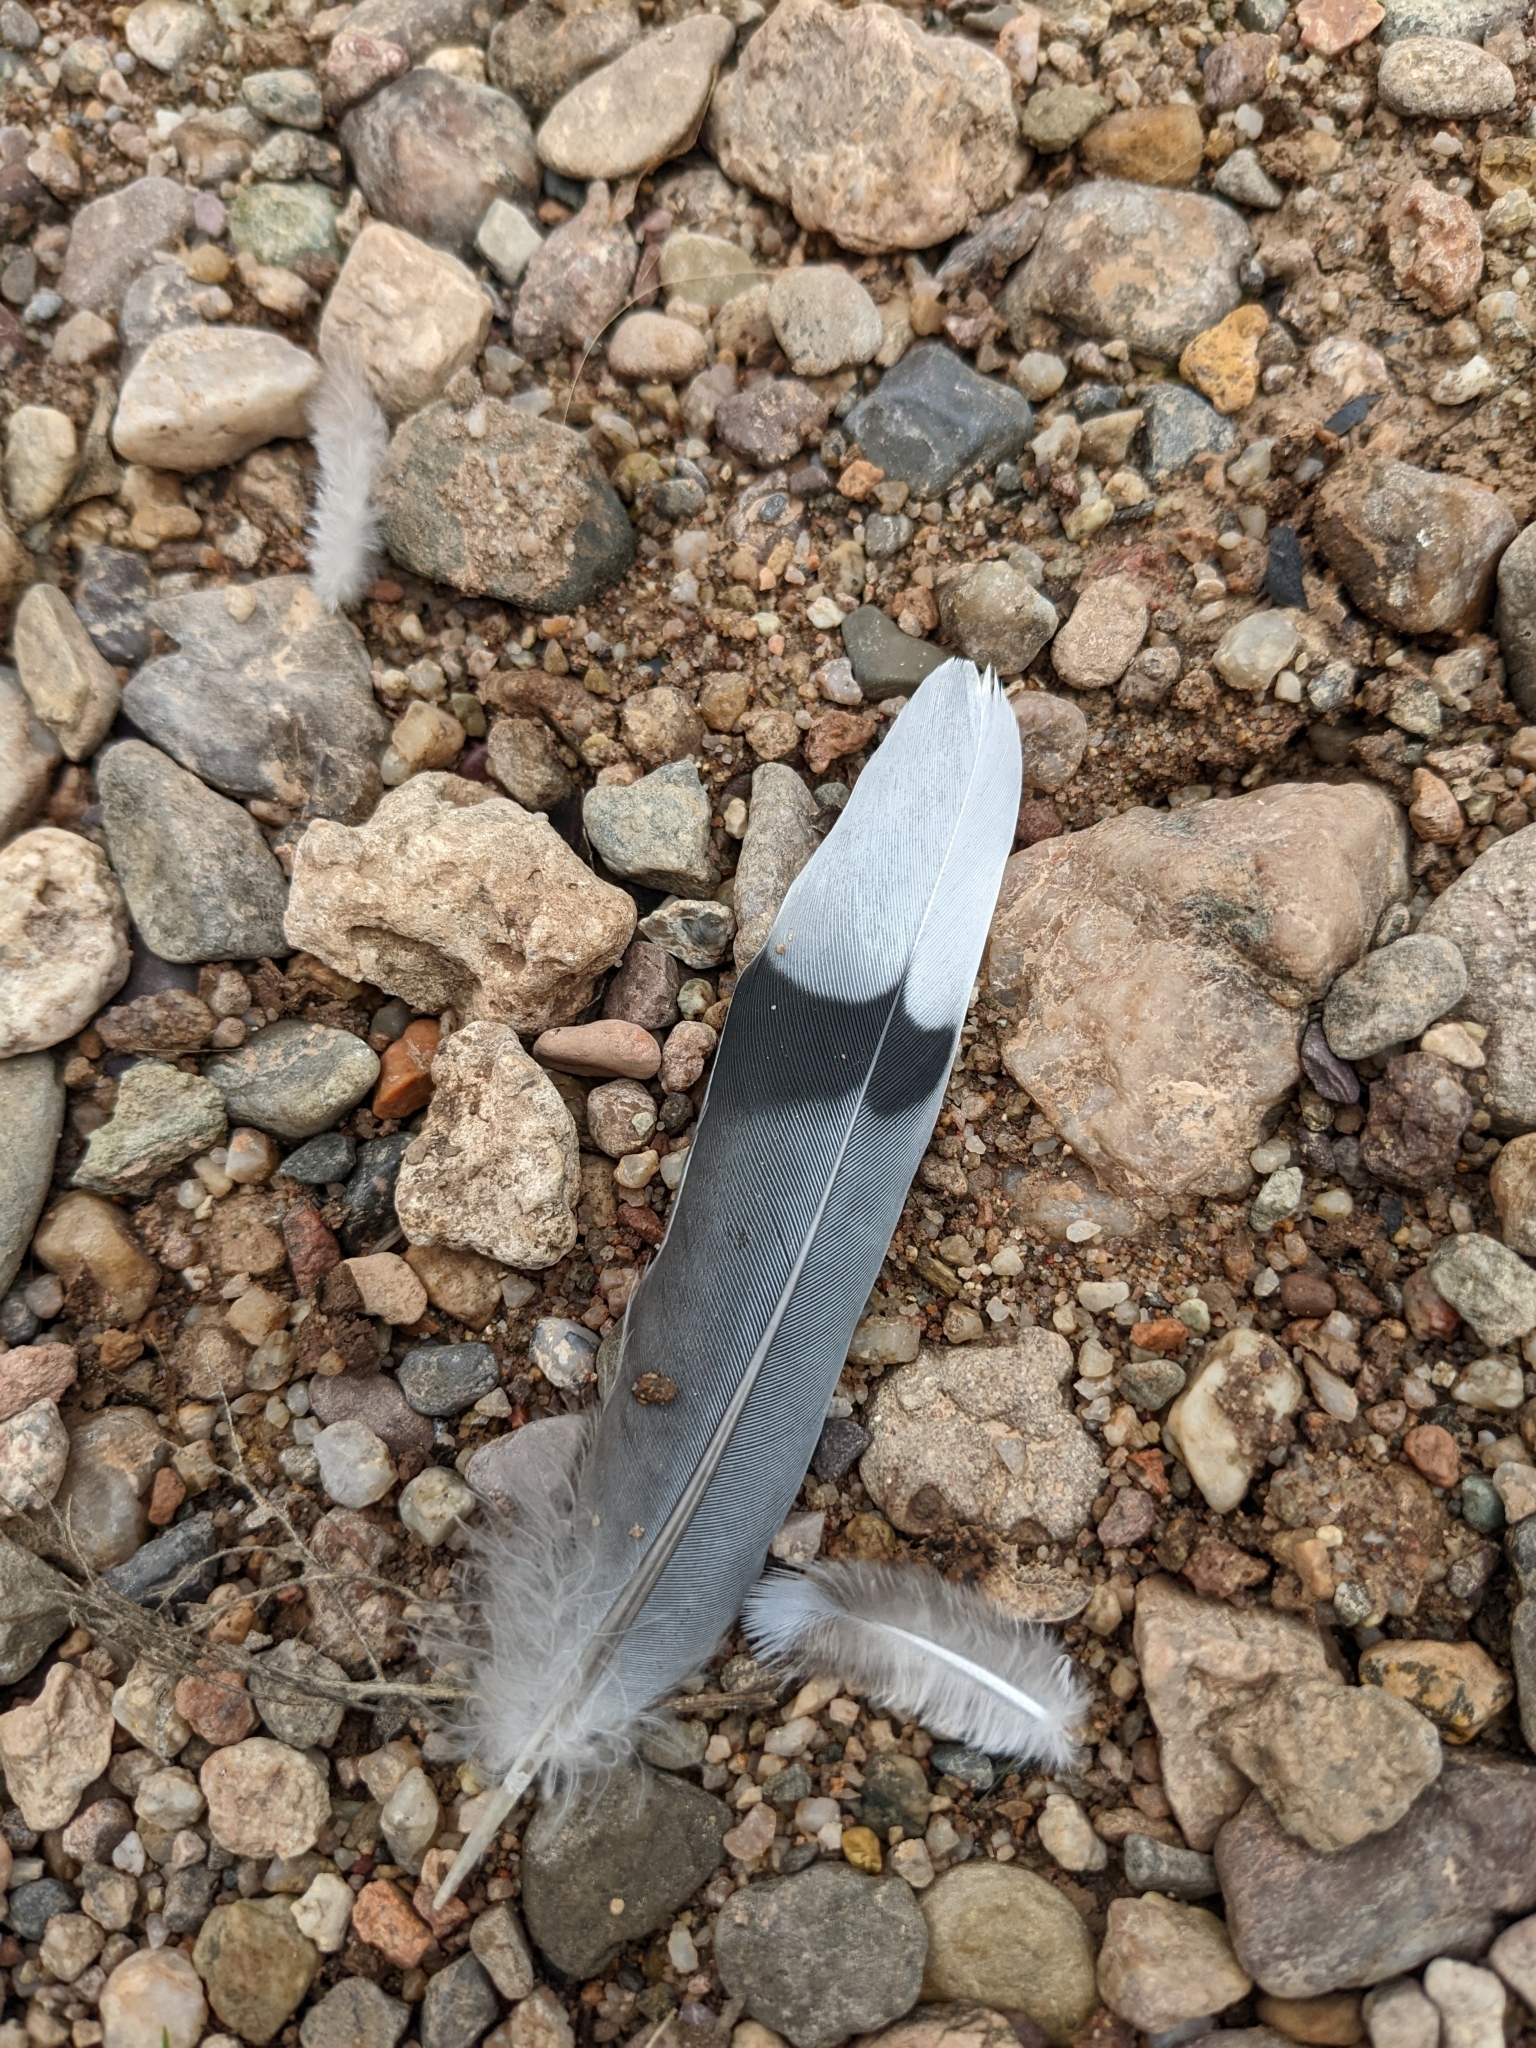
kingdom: Animalia
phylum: Chordata
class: Aves
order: Columbiformes
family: Columbidae
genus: Zenaida
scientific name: Zenaida macroura
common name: Mourning dove
